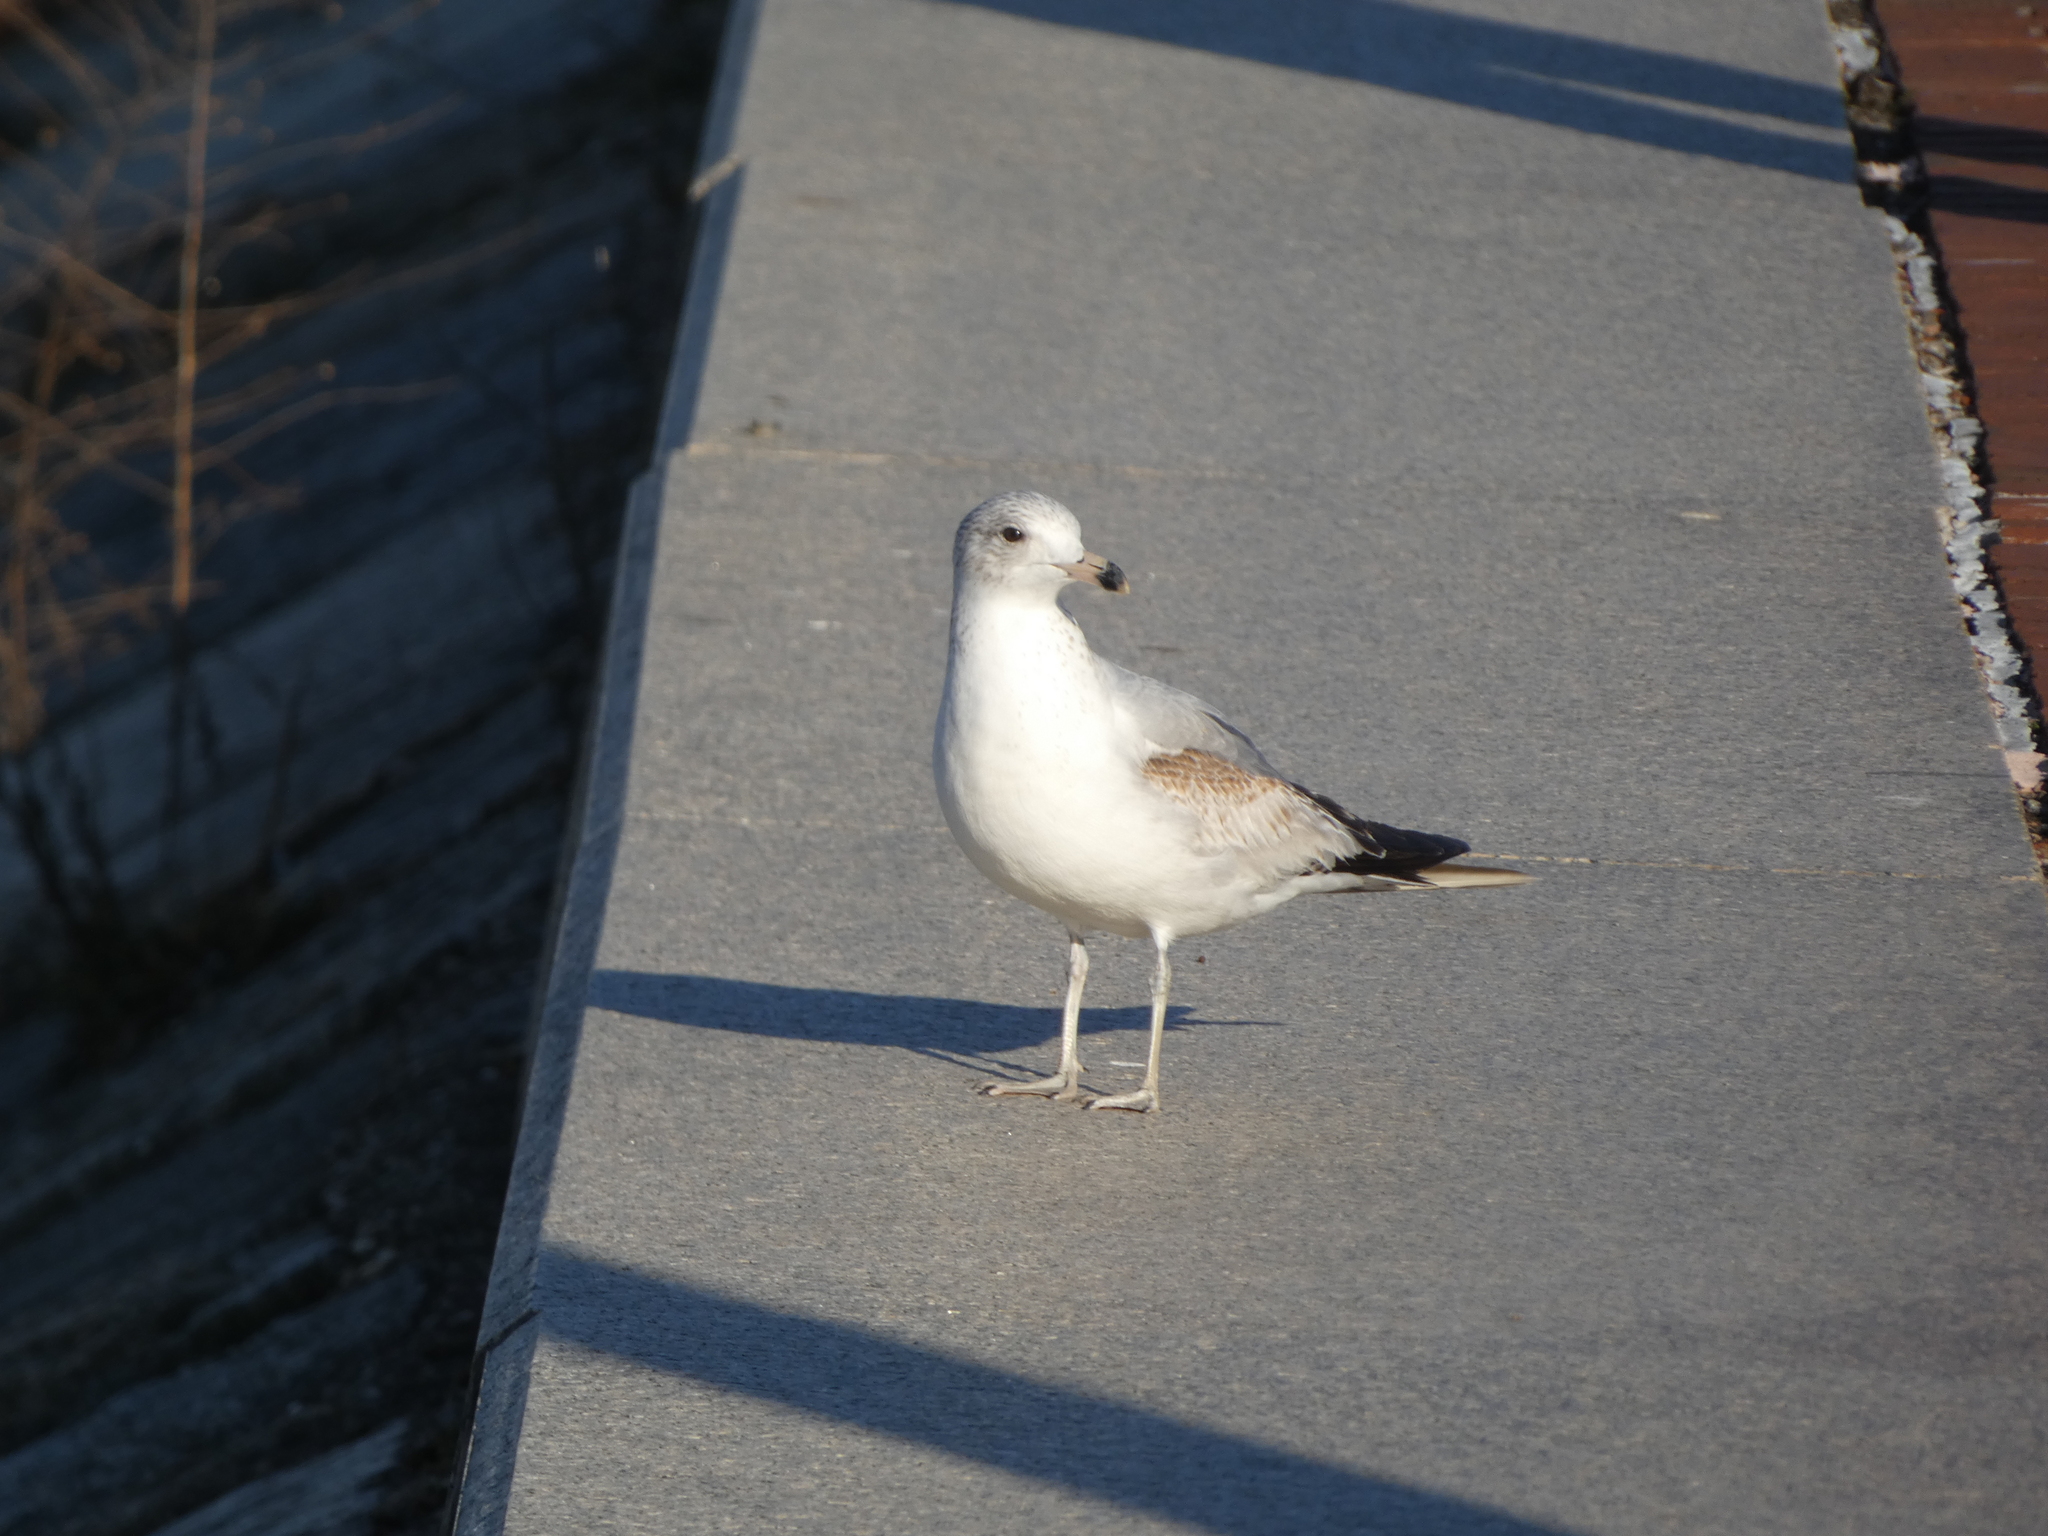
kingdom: Animalia
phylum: Chordata
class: Aves
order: Charadriiformes
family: Laridae
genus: Larus
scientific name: Larus delawarensis
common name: Ring-billed gull
